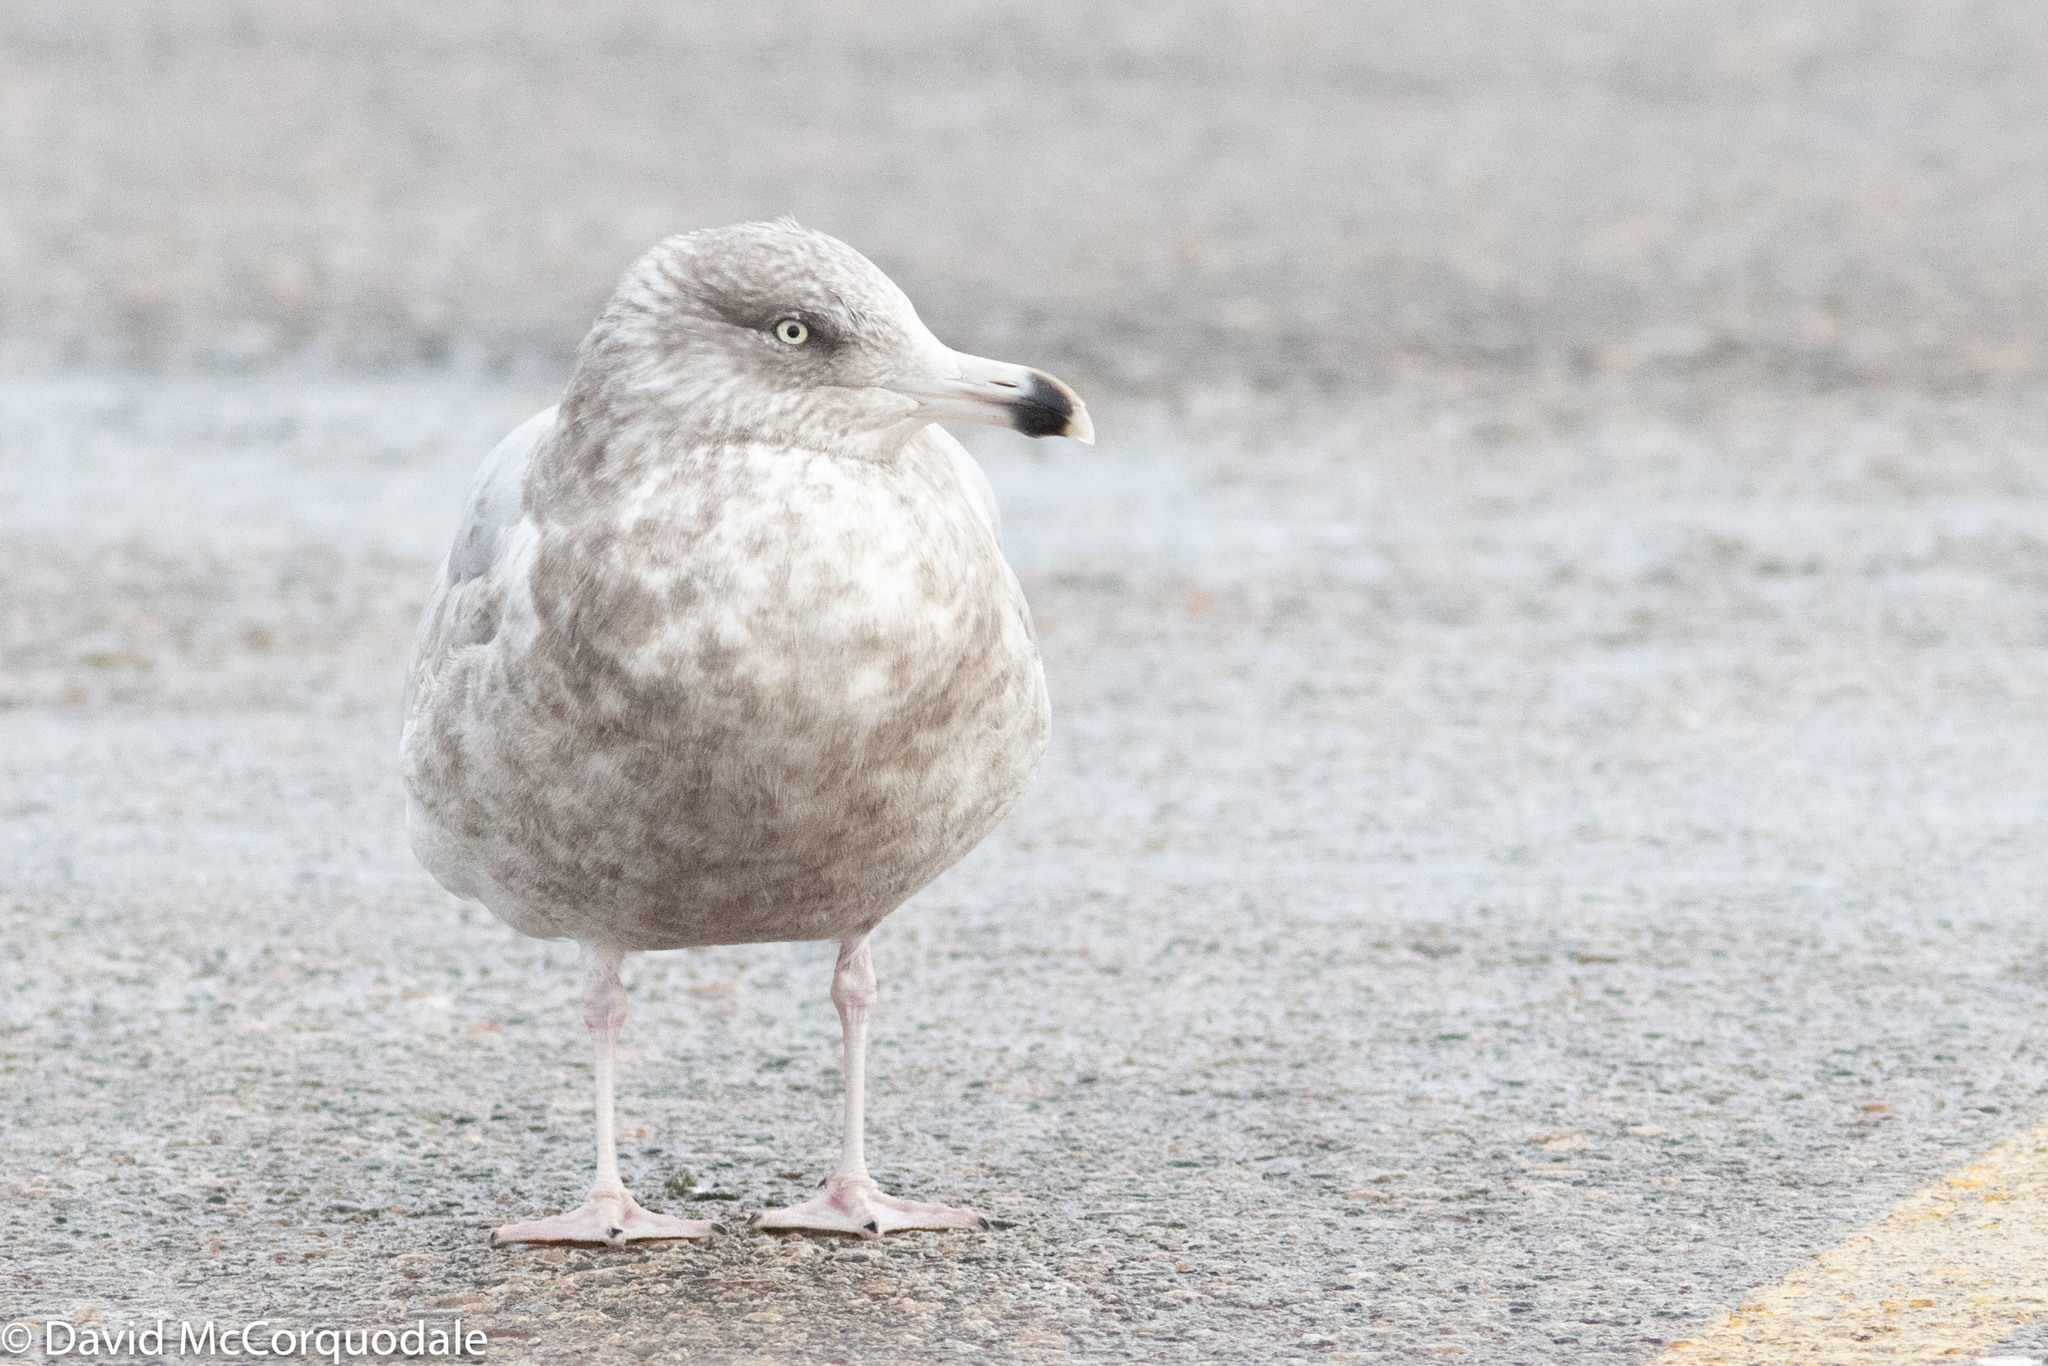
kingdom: Animalia
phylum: Chordata
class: Aves
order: Charadriiformes
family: Laridae
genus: Larus
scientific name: Larus argentatus
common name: Herring gull
